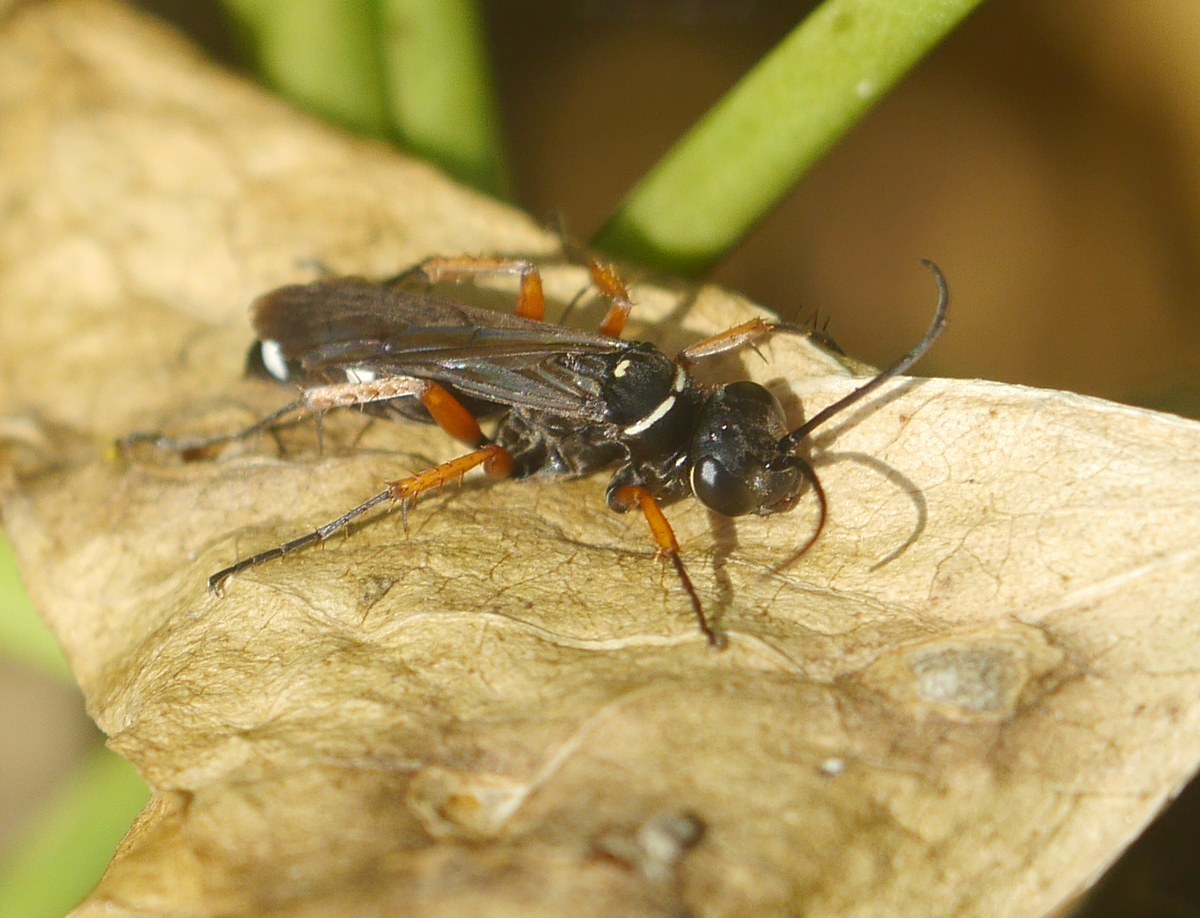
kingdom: Animalia
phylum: Arthropoda
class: Insecta
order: Hymenoptera
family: Pompilidae
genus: Episyron
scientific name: Episyron albonotatum
